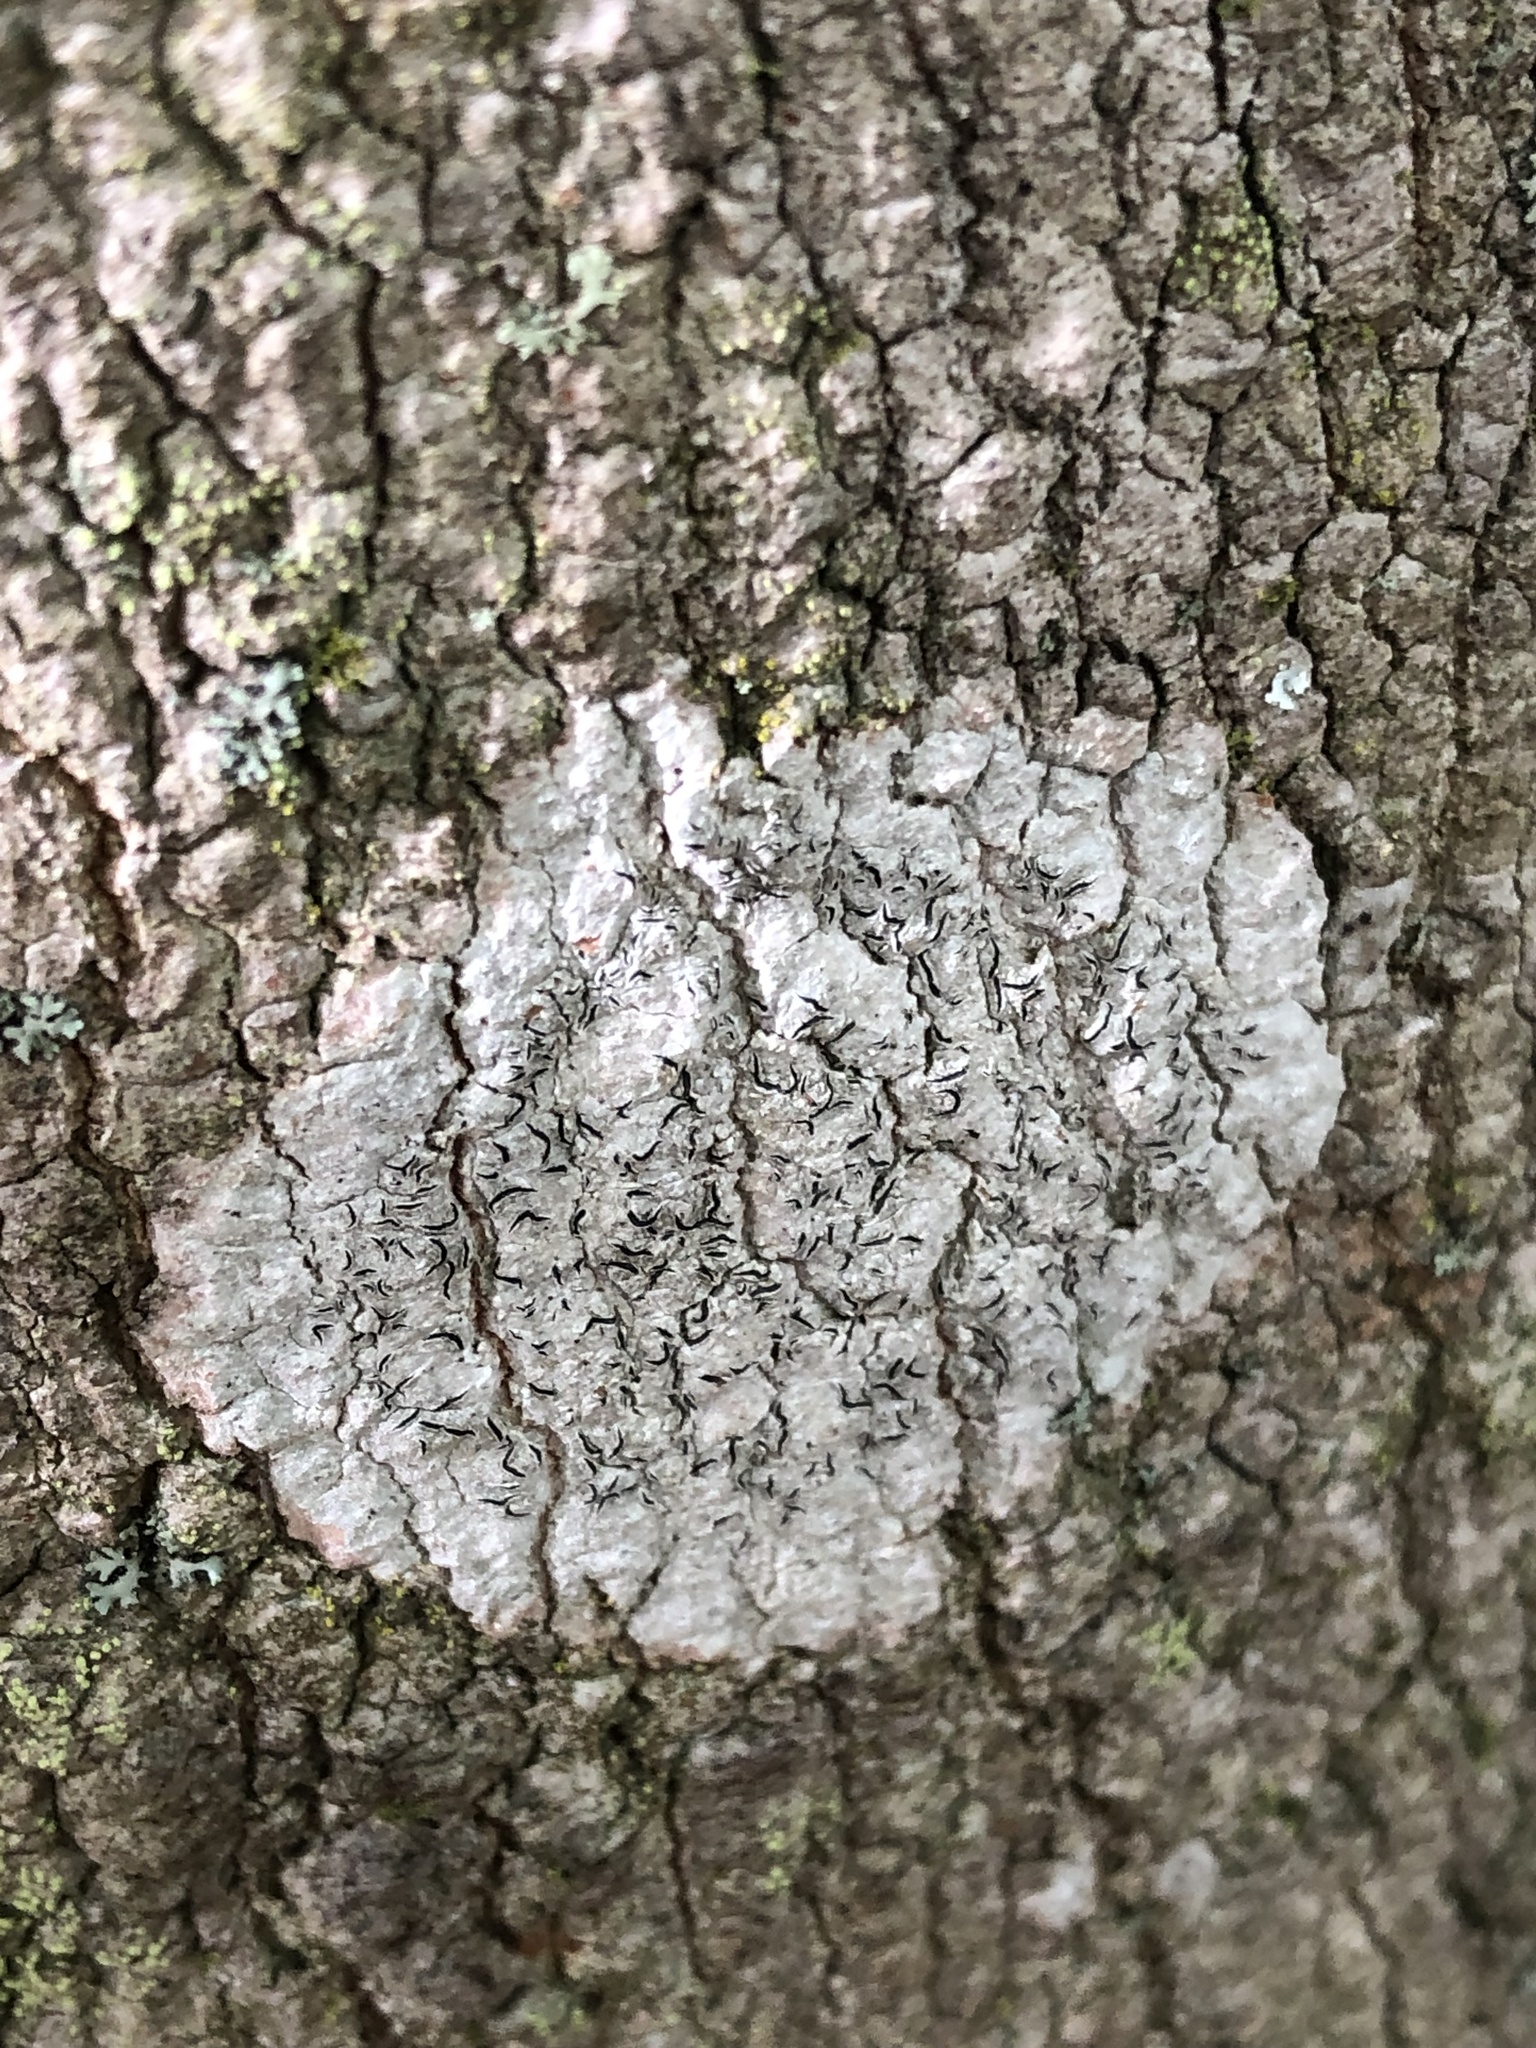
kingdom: Fungi
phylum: Ascomycota
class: Lecanoromycetes
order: Ostropales
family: Graphidaceae
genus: Graphis
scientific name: Graphis scripta
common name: Script lichen
